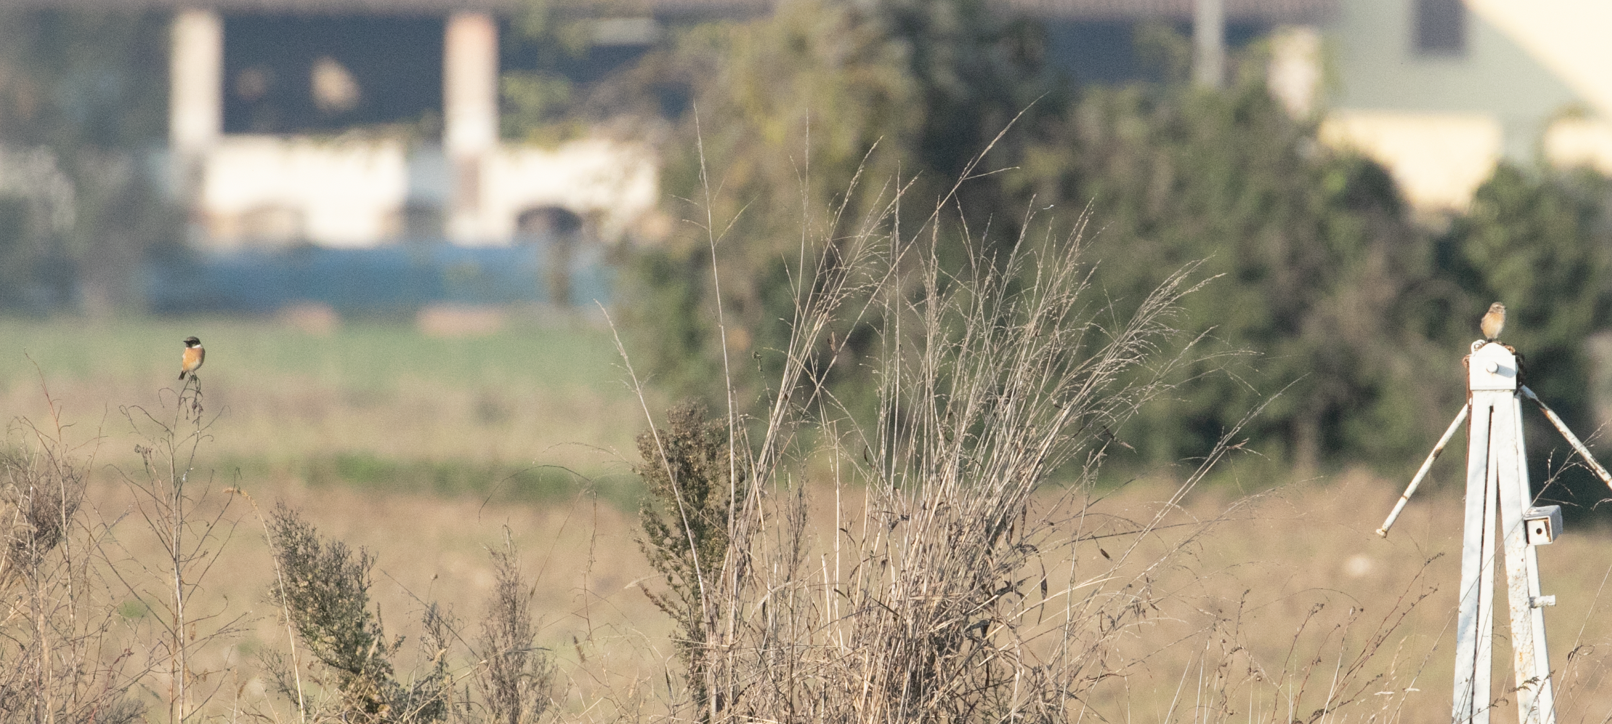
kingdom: Animalia
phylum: Chordata
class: Aves
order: Passeriformes
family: Muscicapidae
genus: Saxicola
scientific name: Saxicola rubicola
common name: European stonechat
